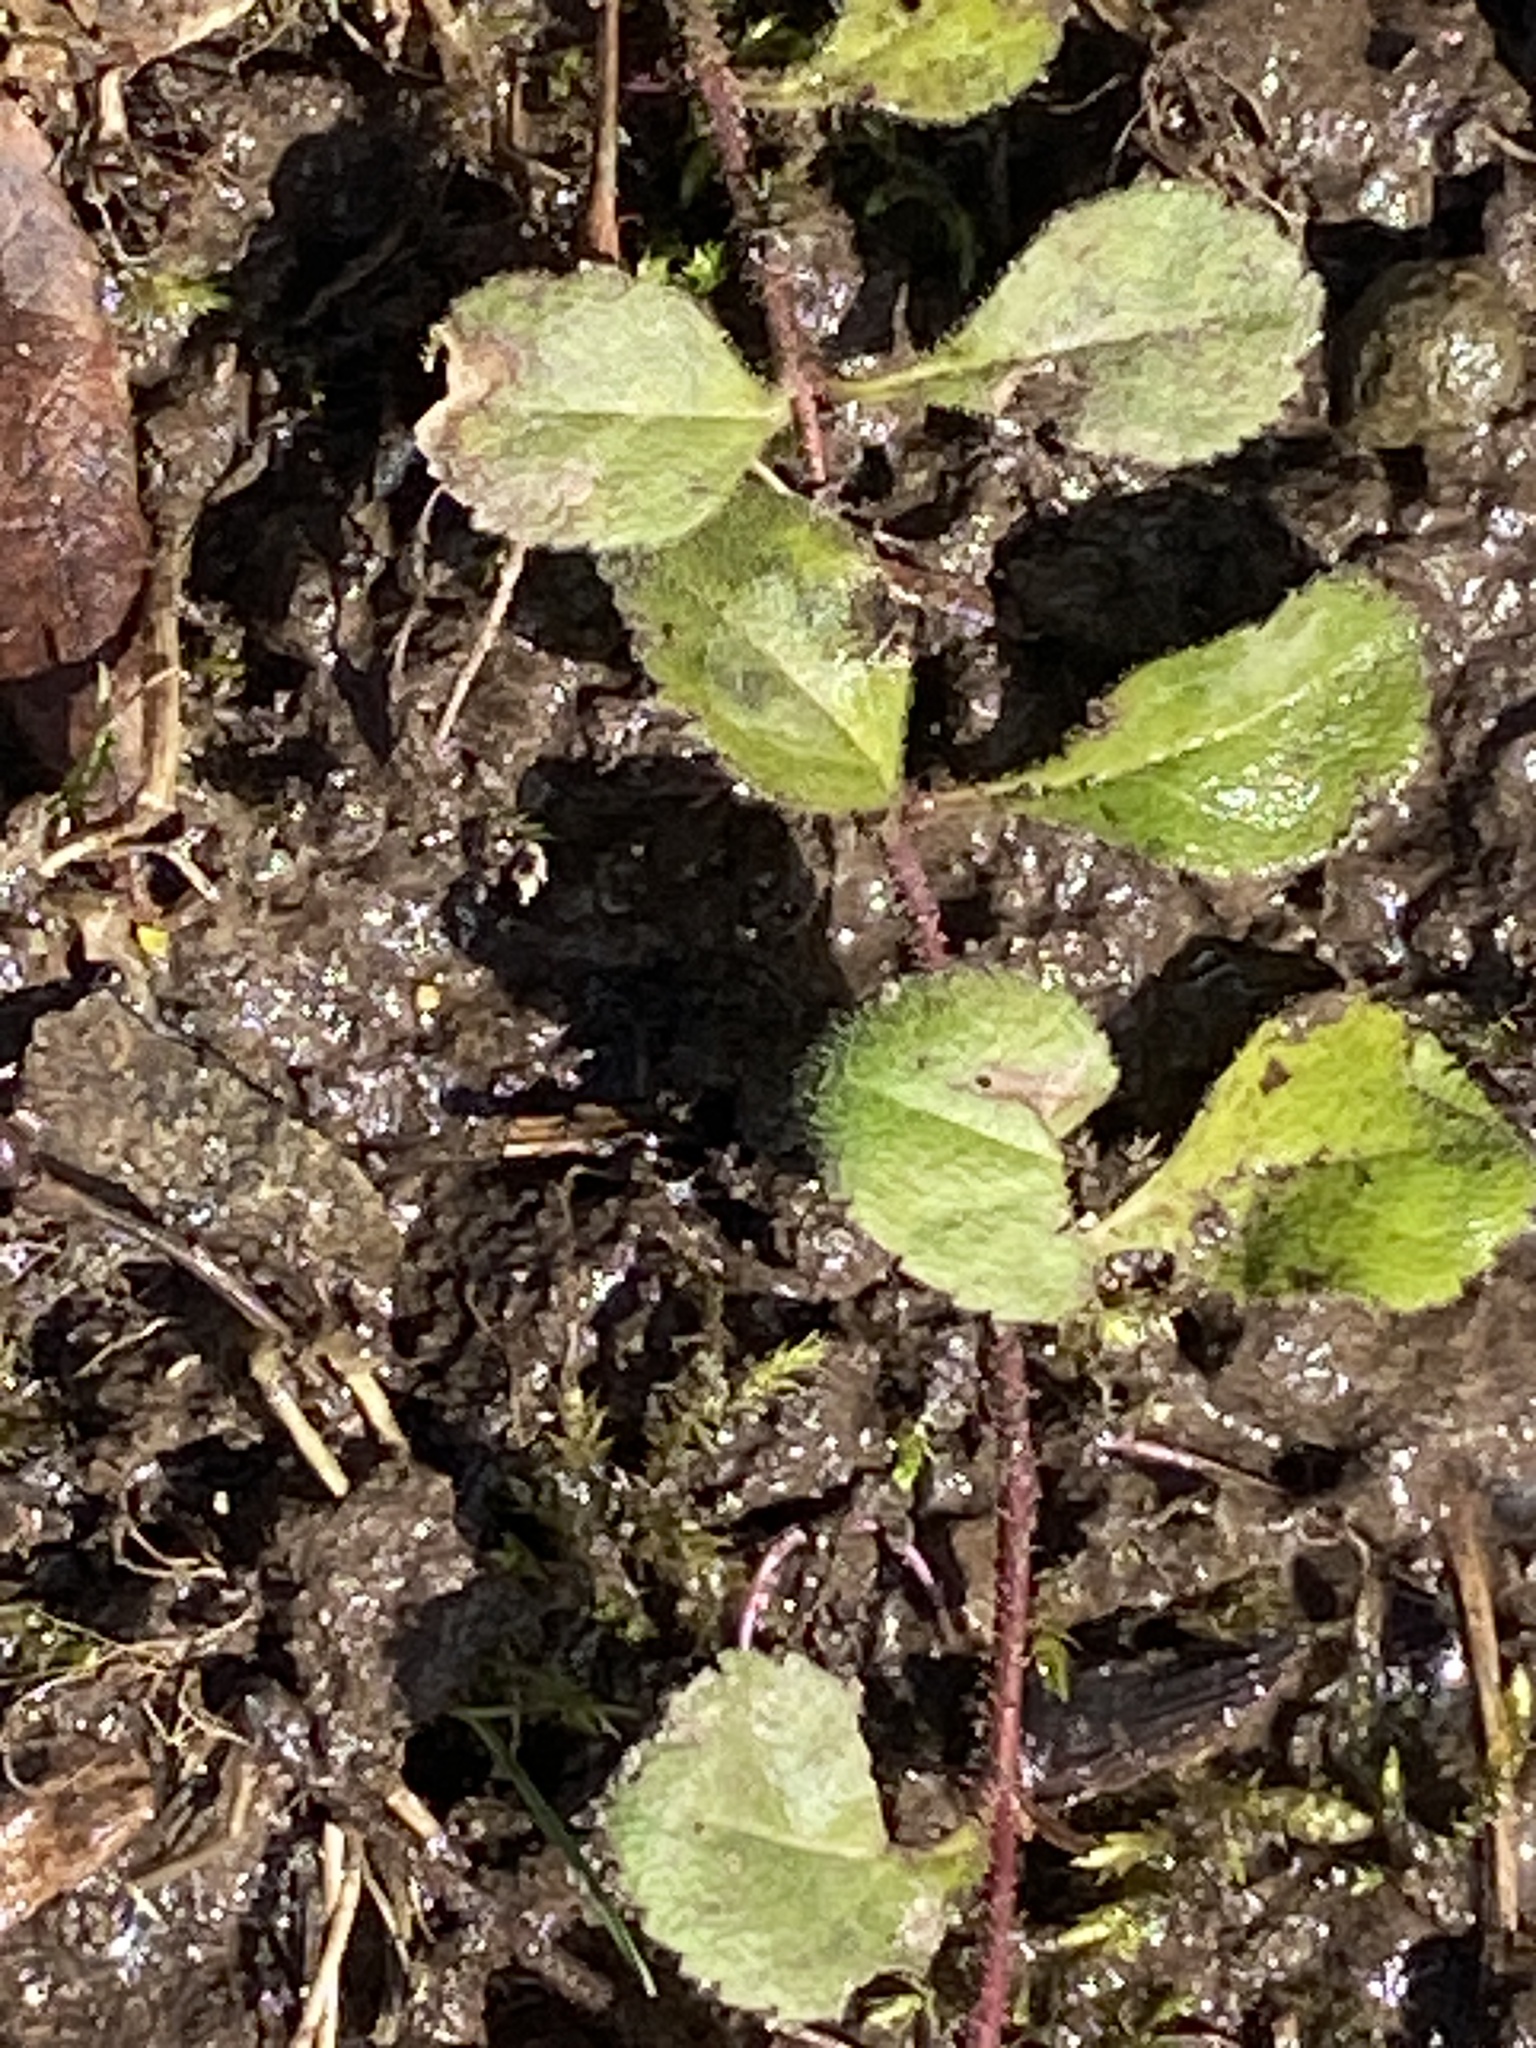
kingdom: Plantae
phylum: Tracheophyta
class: Magnoliopsida
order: Lamiales
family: Plantaginaceae
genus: Veronica
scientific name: Veronica officinalis
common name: Common speedwell
